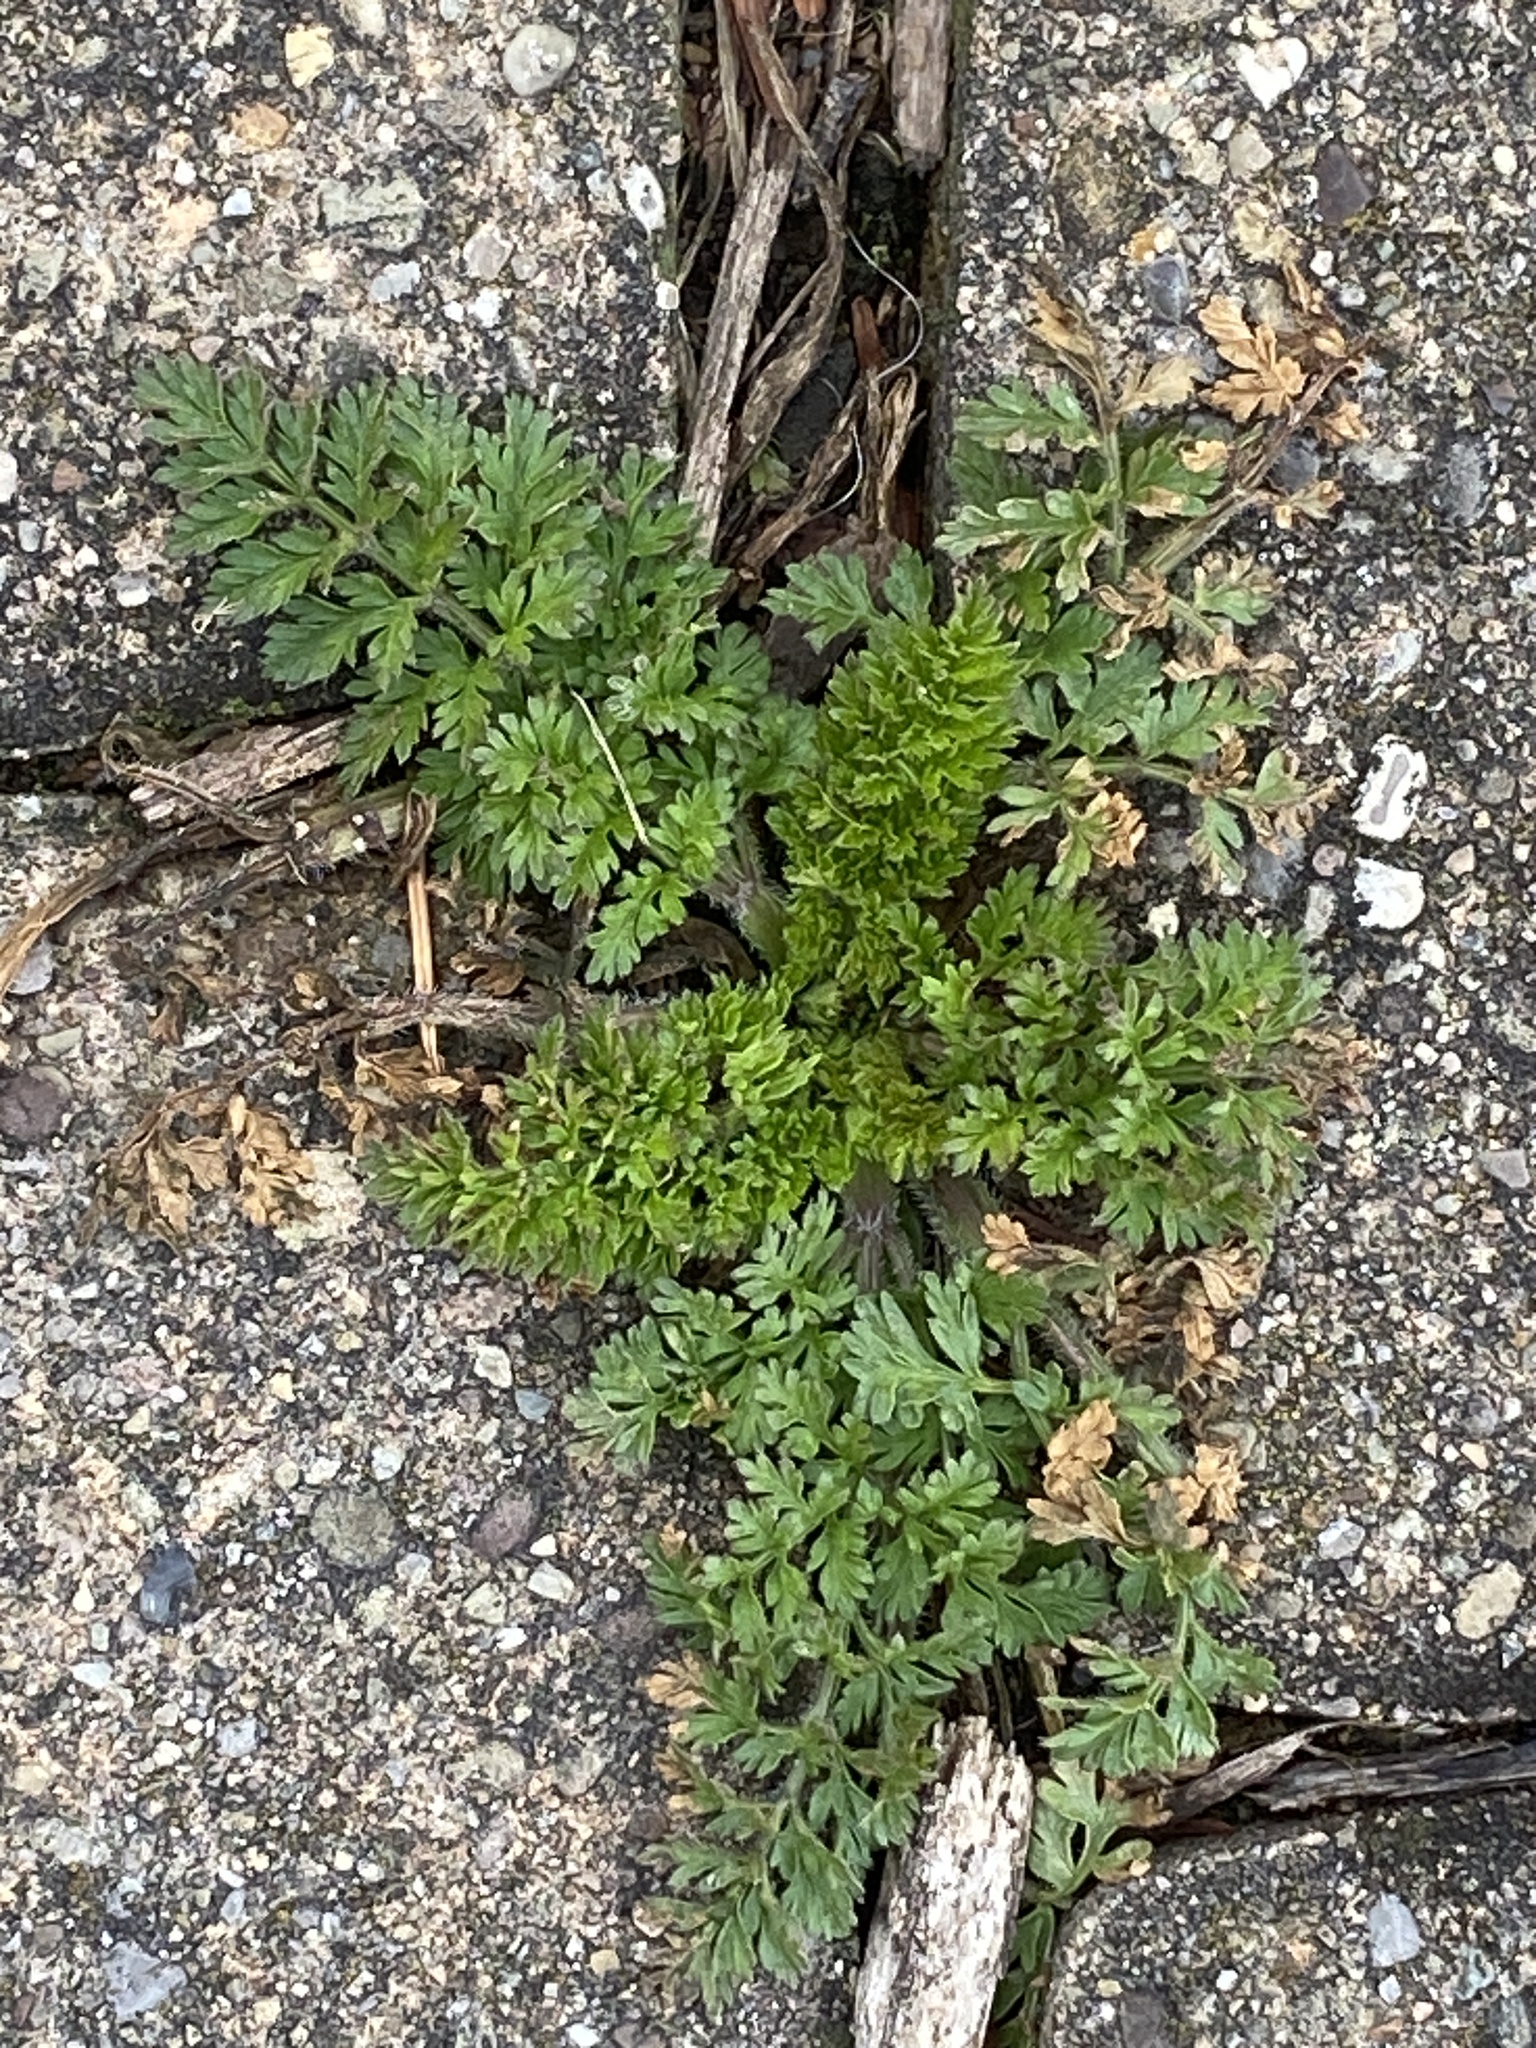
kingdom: Plantae
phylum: Tracheophyta
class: Magnoliopsida
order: Apiales
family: Apiaceae
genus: Daucus
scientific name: Daucus carota
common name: Wild carrot
